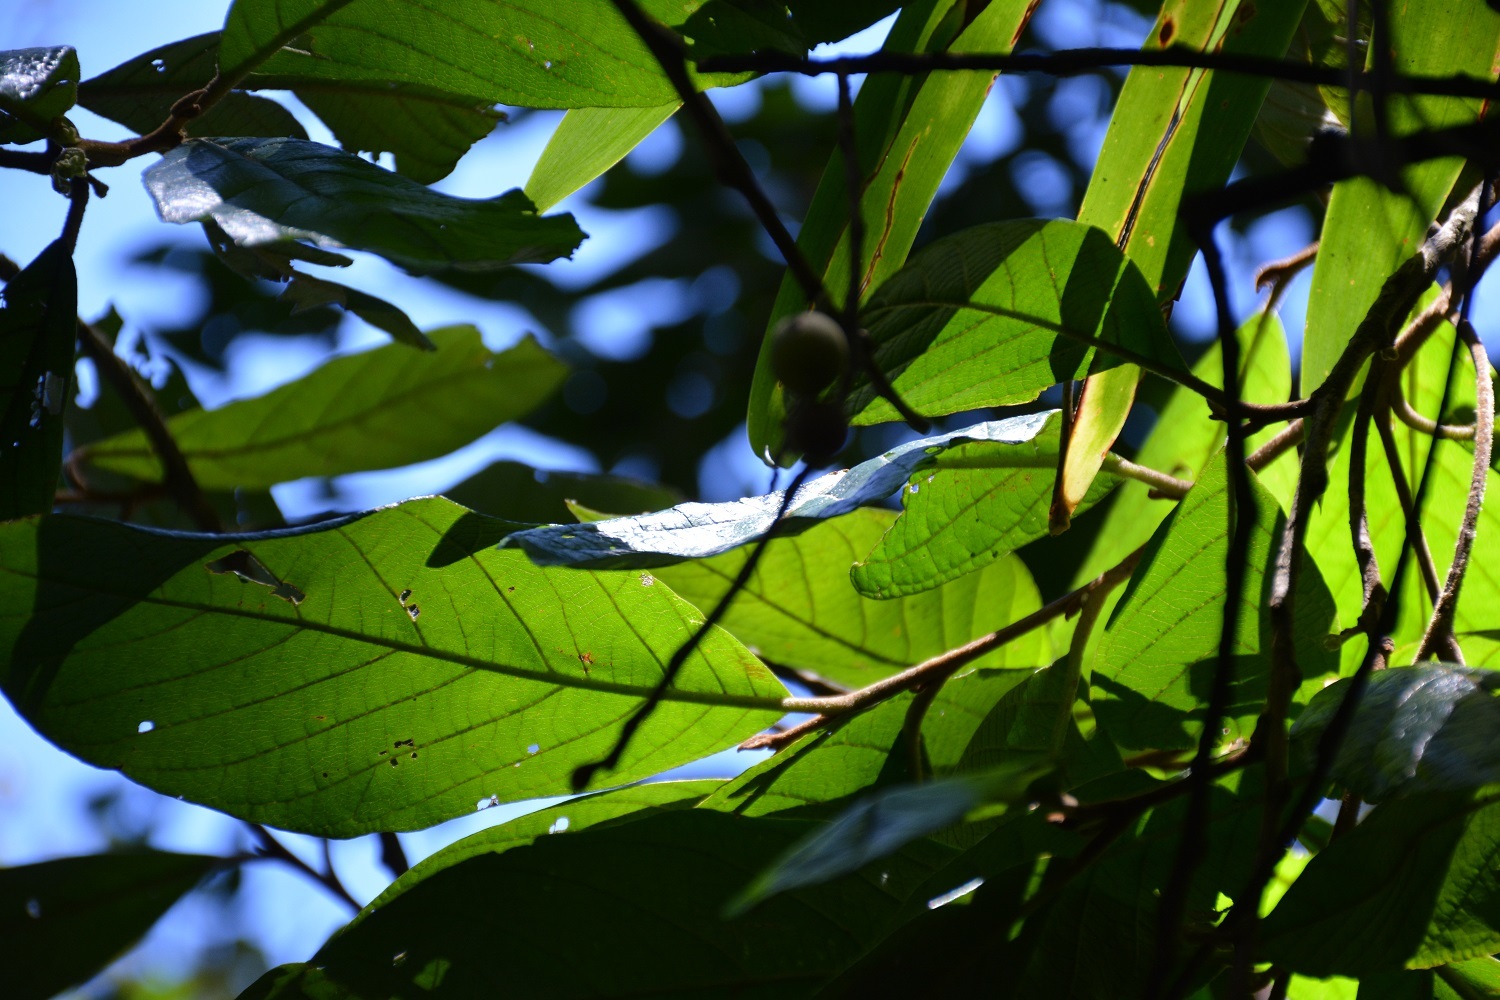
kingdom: Plantae
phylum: Tracheophyta
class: Magnoliopsida
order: Ericales
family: Styracaceae
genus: Styrax
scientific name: Styrax magnus
